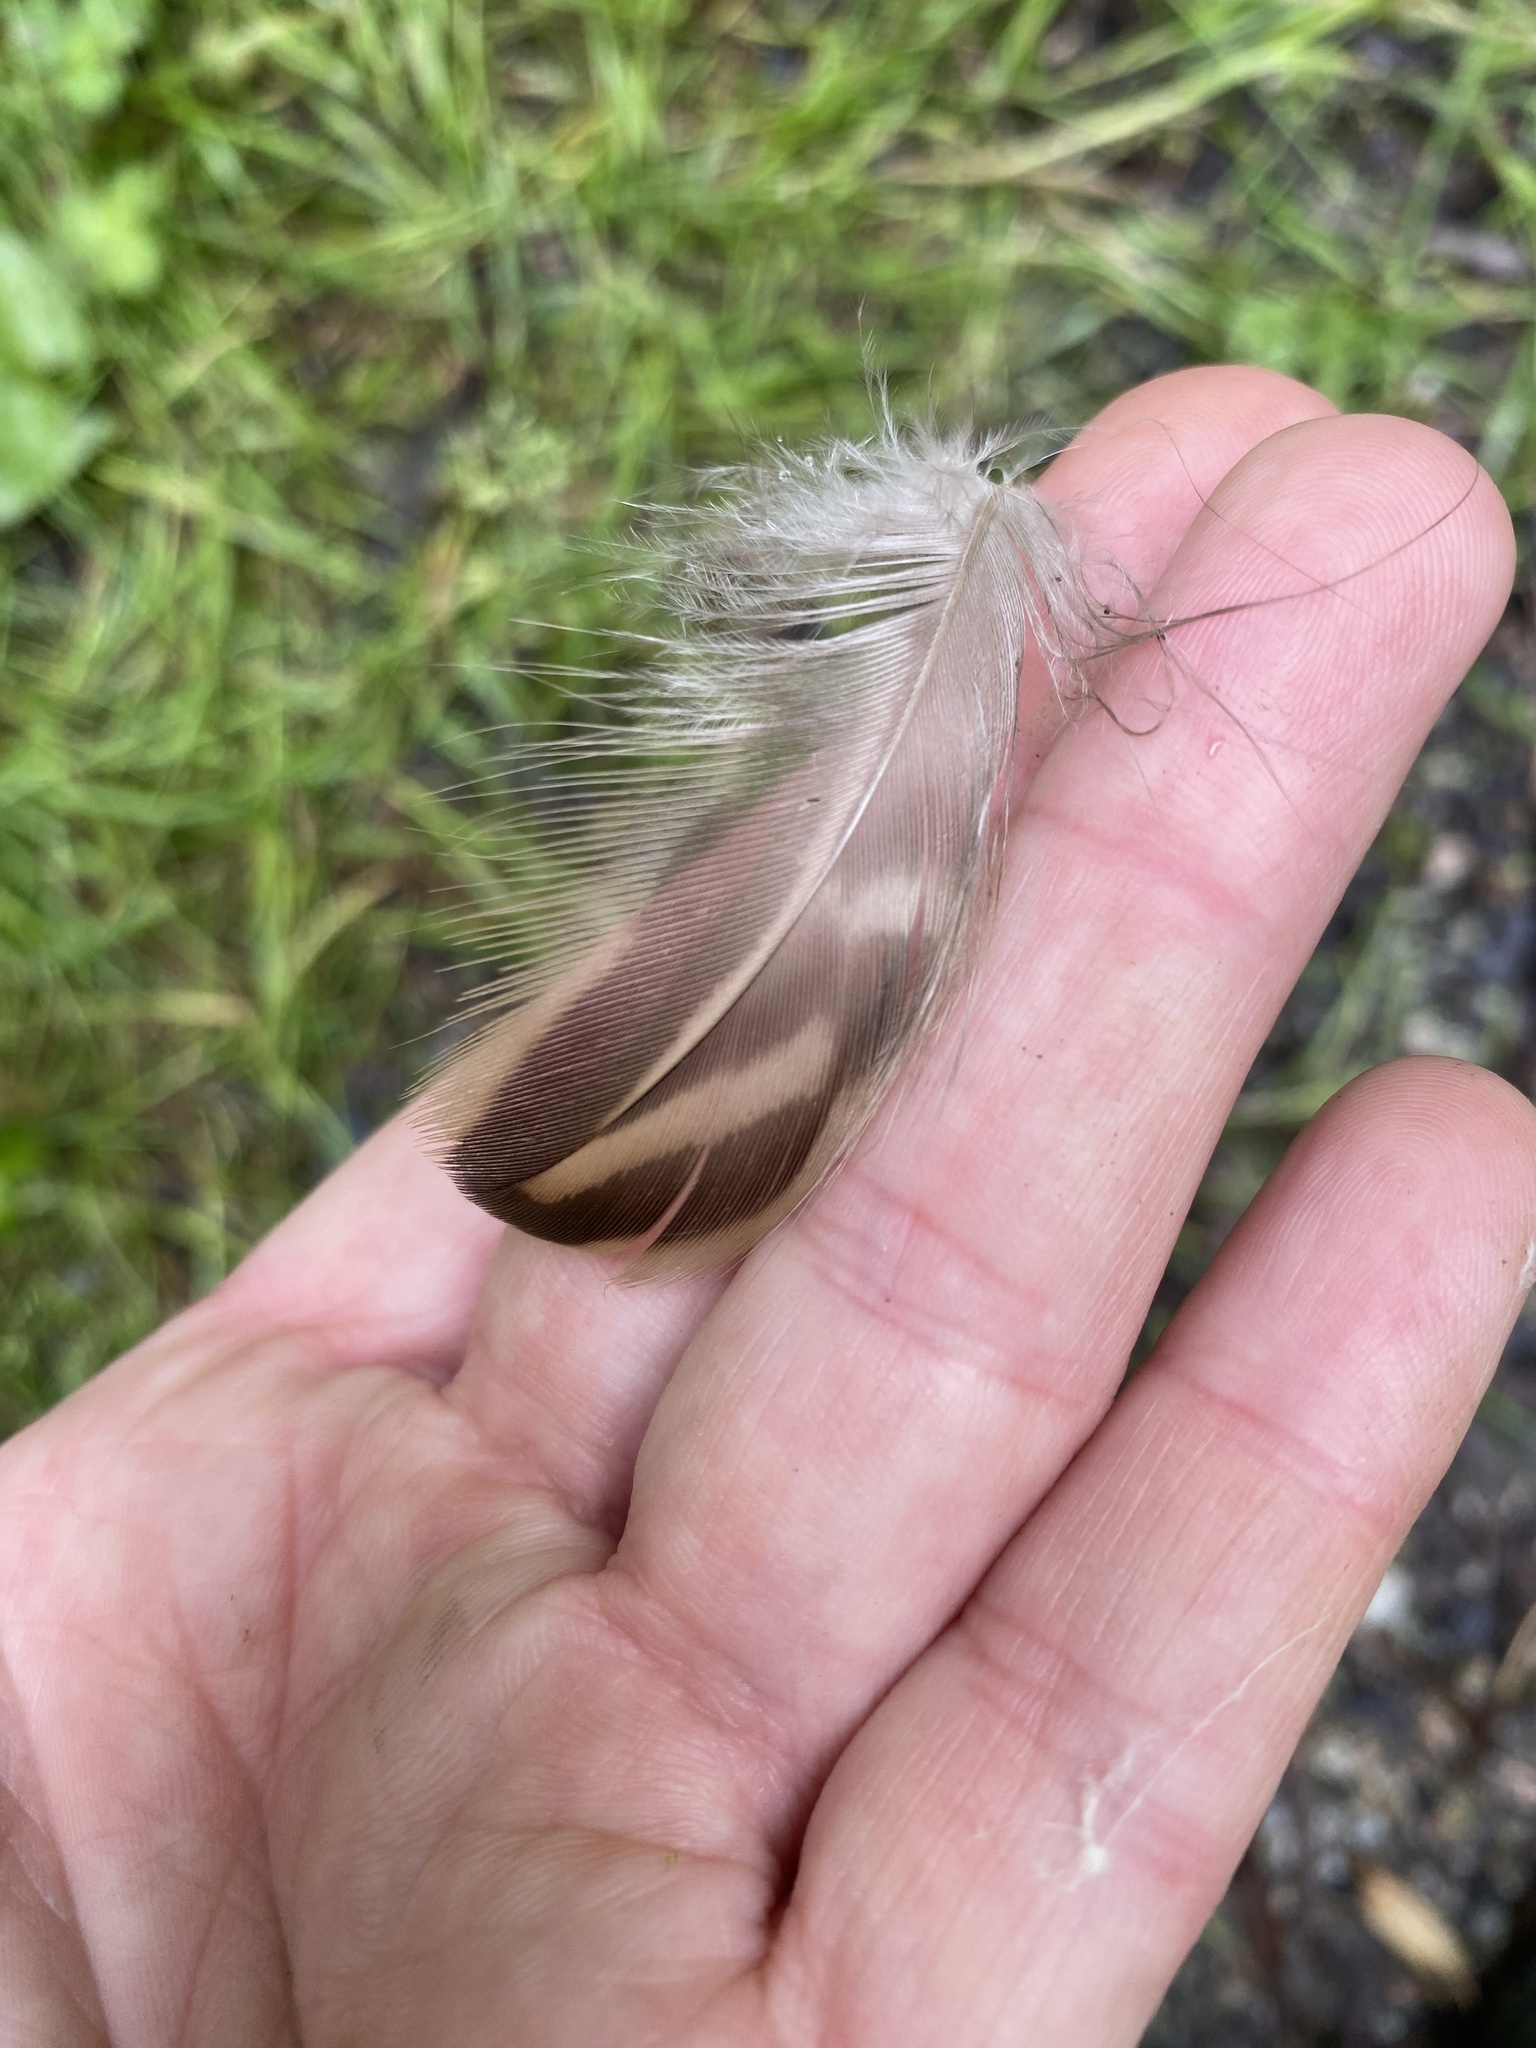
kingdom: Animalia
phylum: Chordata
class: Aves
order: Anseriformes
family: Anatidae
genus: Anas
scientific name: Anas platyrhynchos
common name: Mallard
